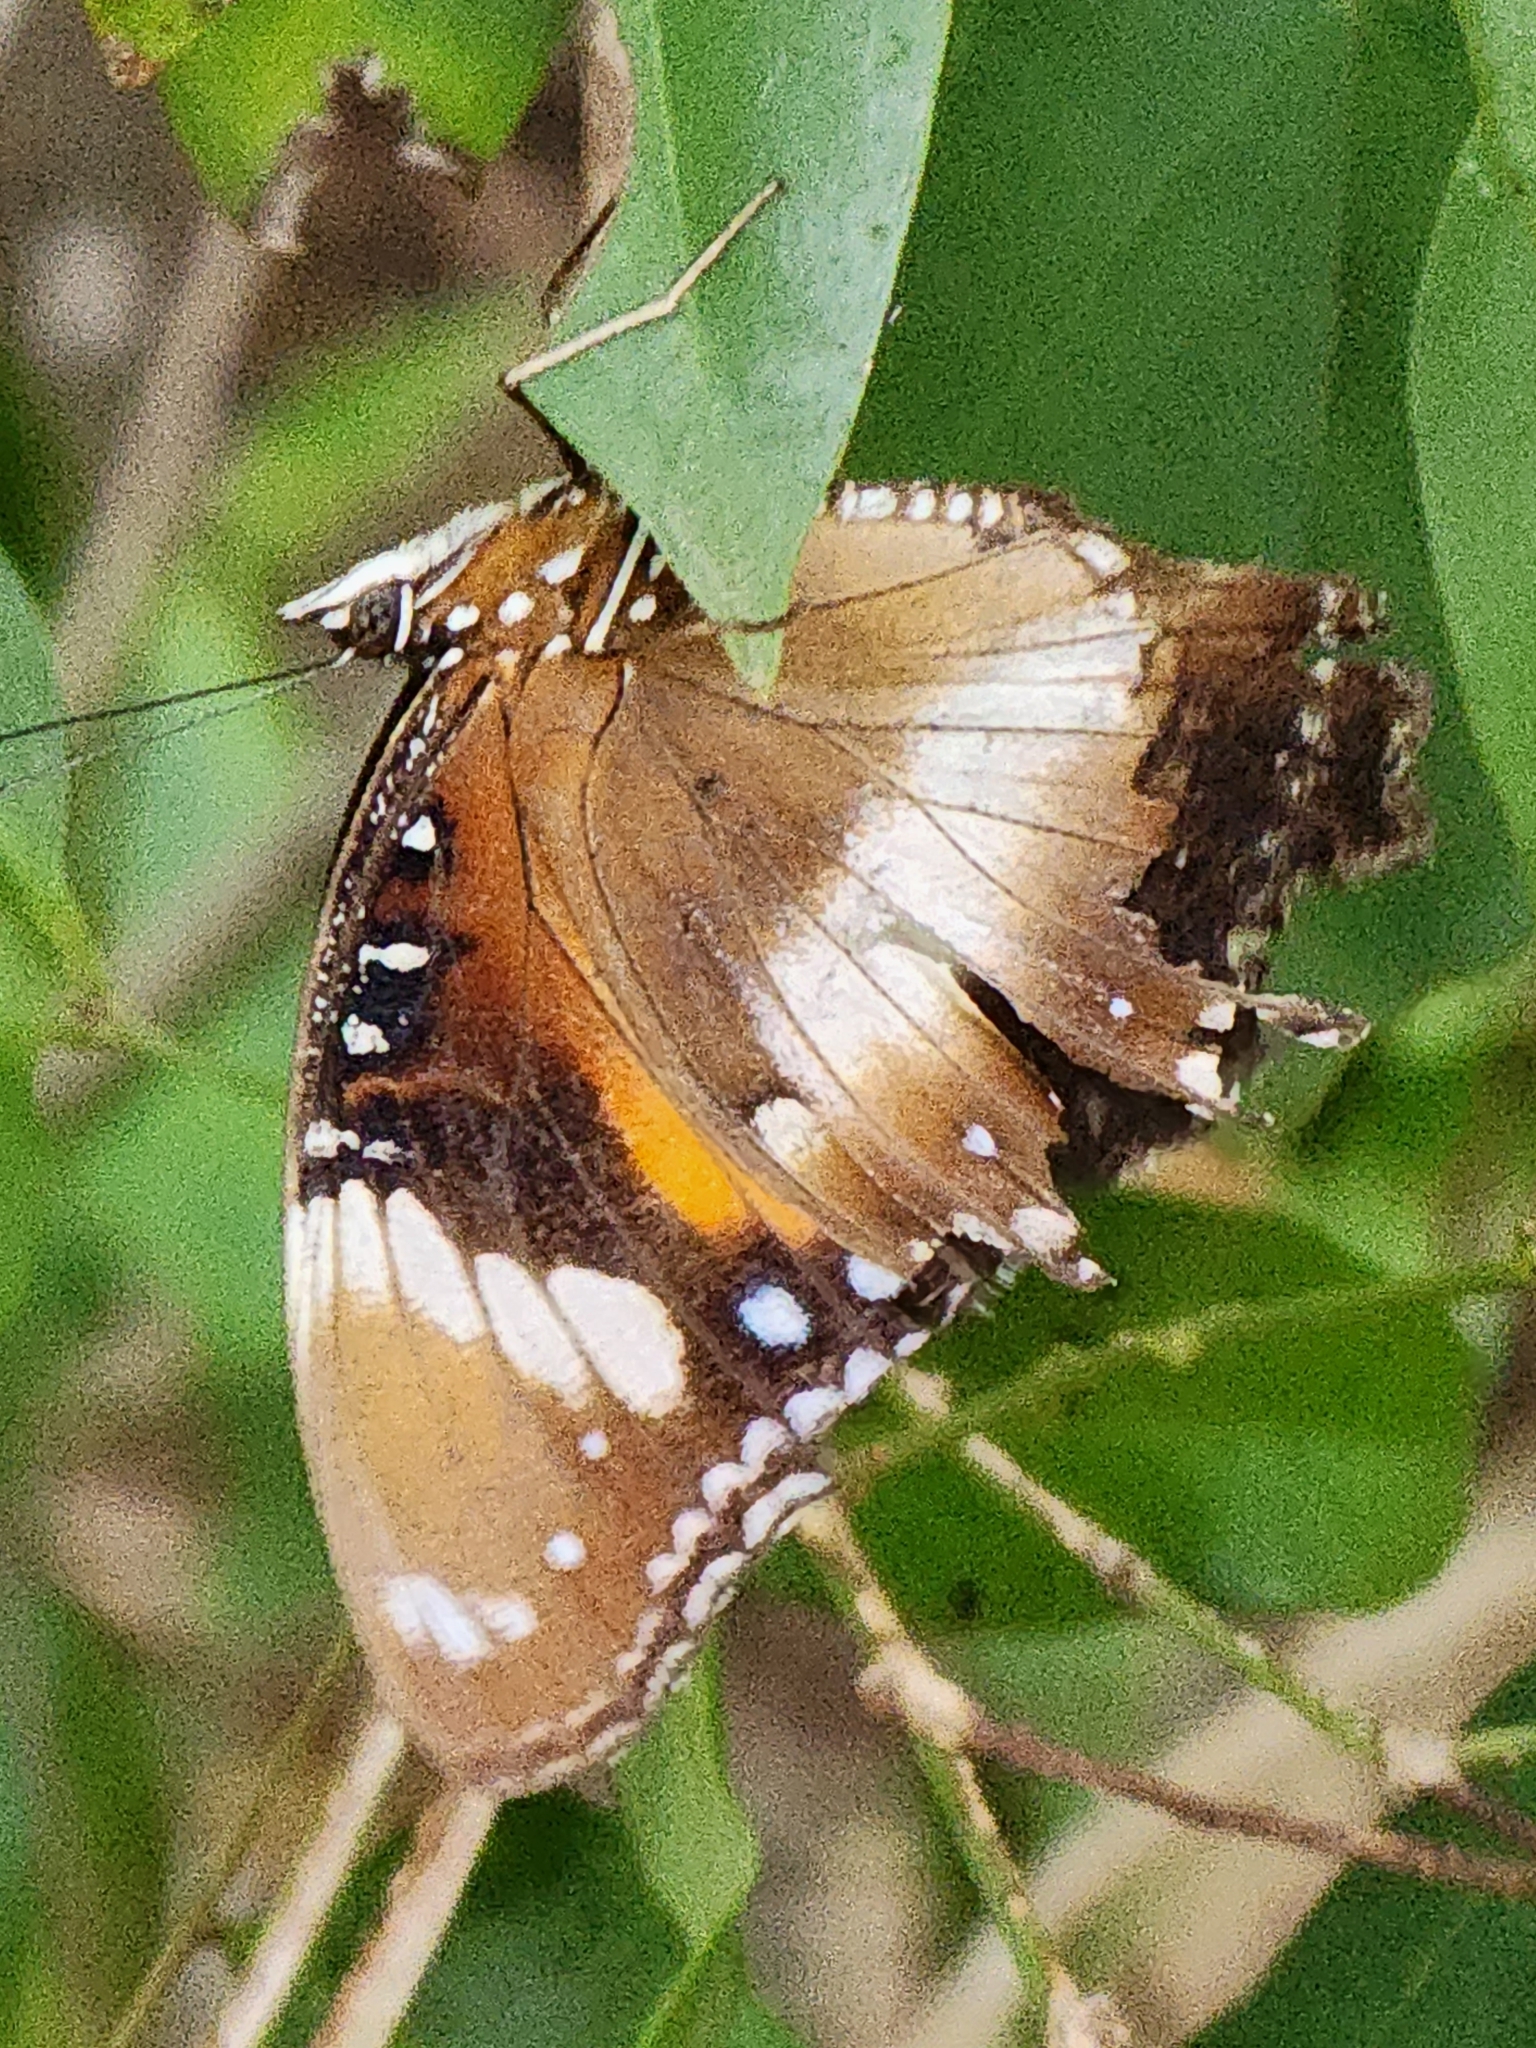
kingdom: Animalia
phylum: Arthropoda
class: Insecta
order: Lepidoptera
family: Nymphalidae
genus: Hypolimnas
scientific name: Hypolimnas bolina
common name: Great eggfly
